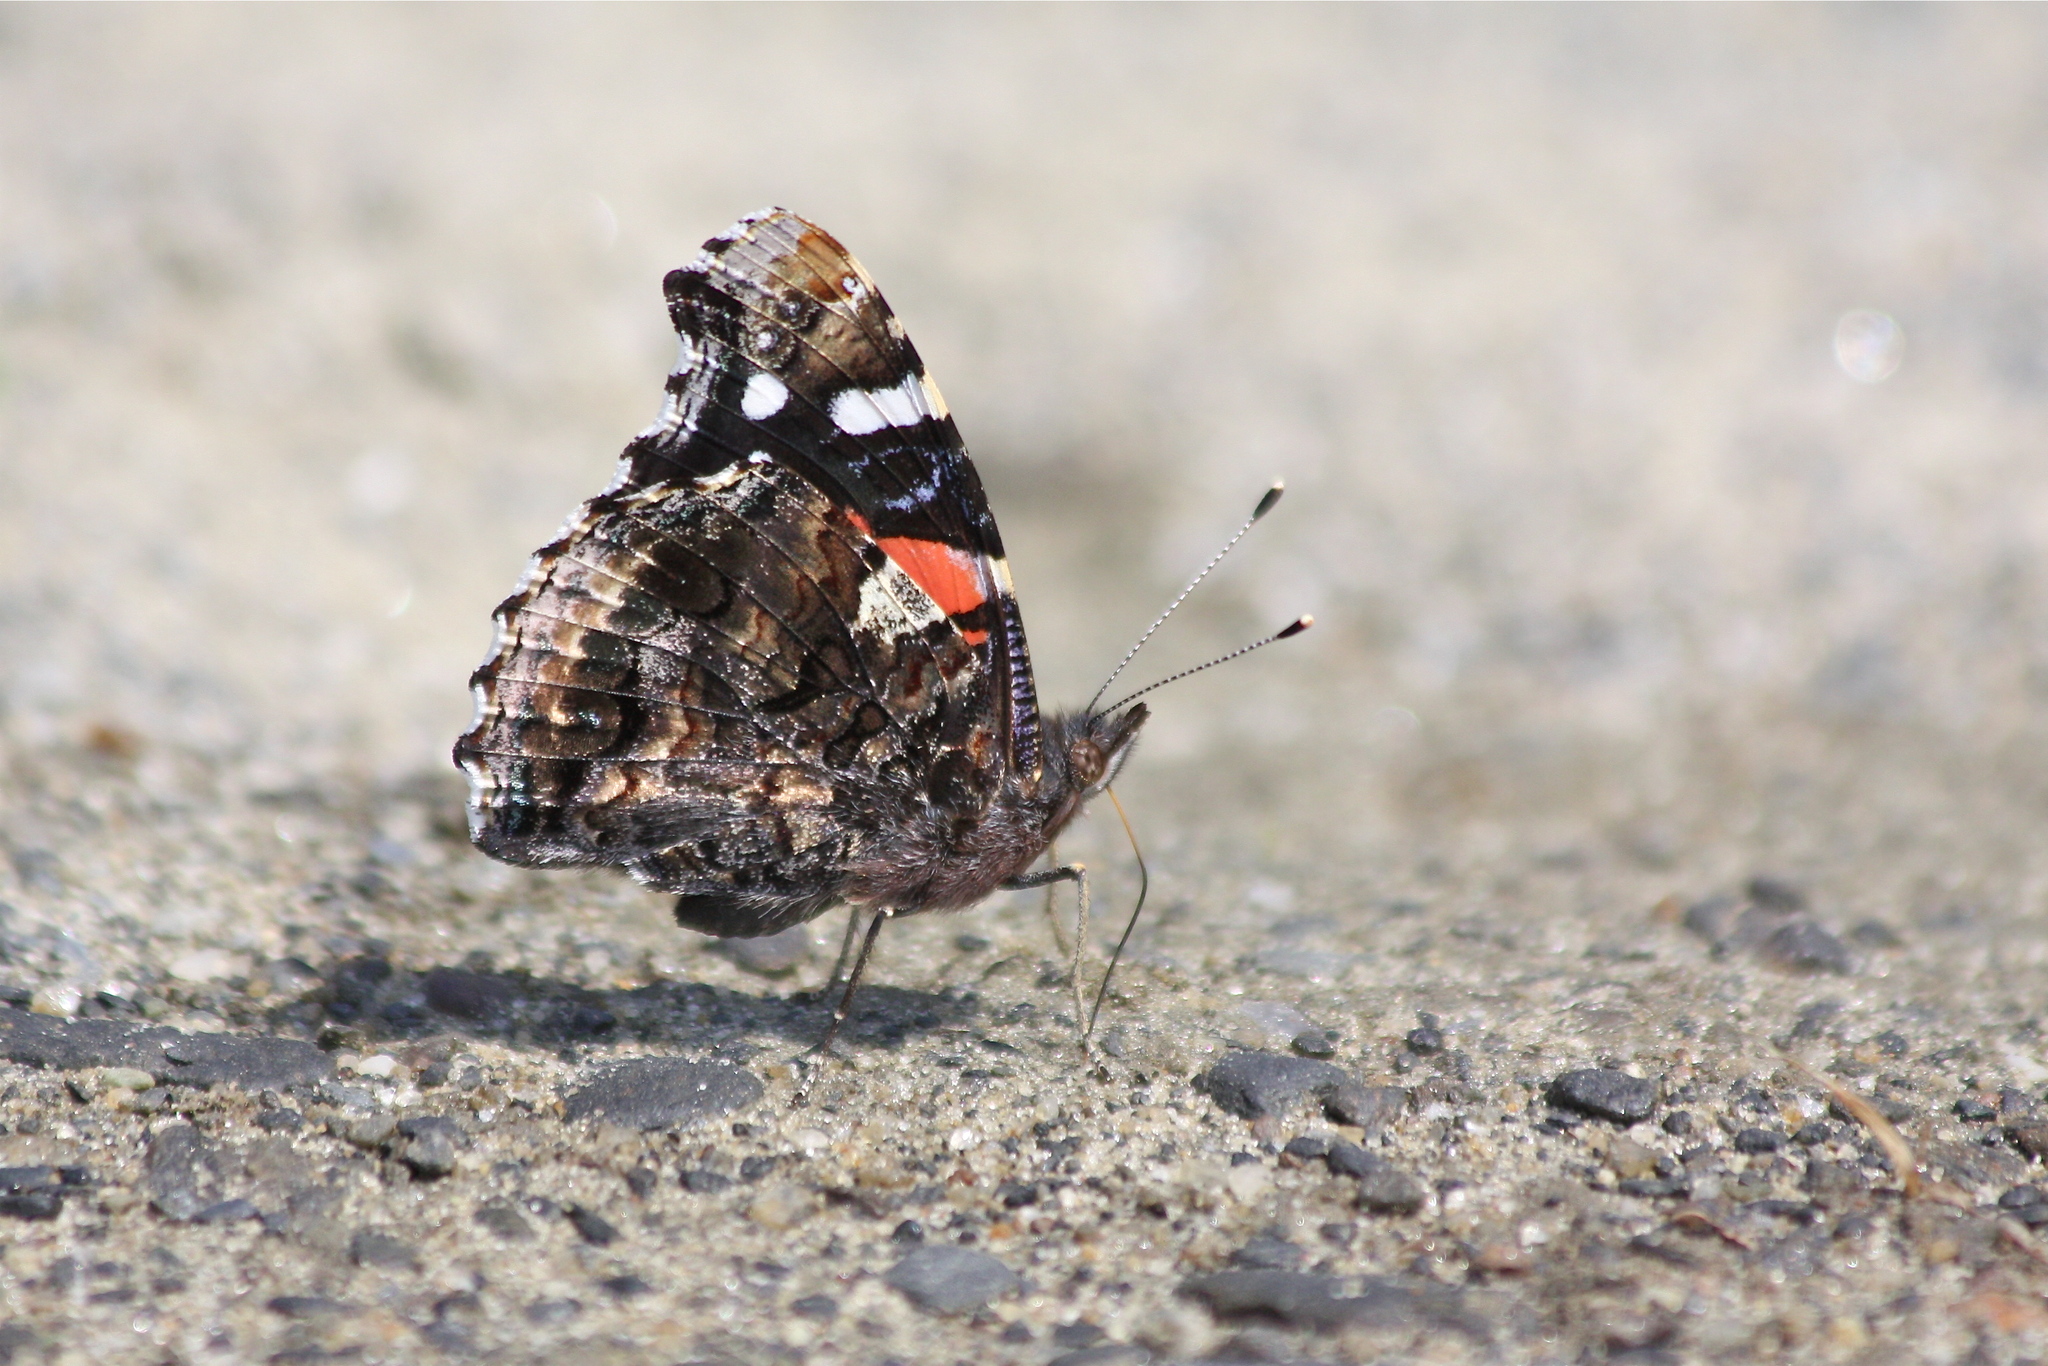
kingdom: Animalia
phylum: Arthropoda
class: Insecta
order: Lepidoptera
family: Nymphalidae
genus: Vanessa
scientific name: Vanessa atalanta
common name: Red admiral
